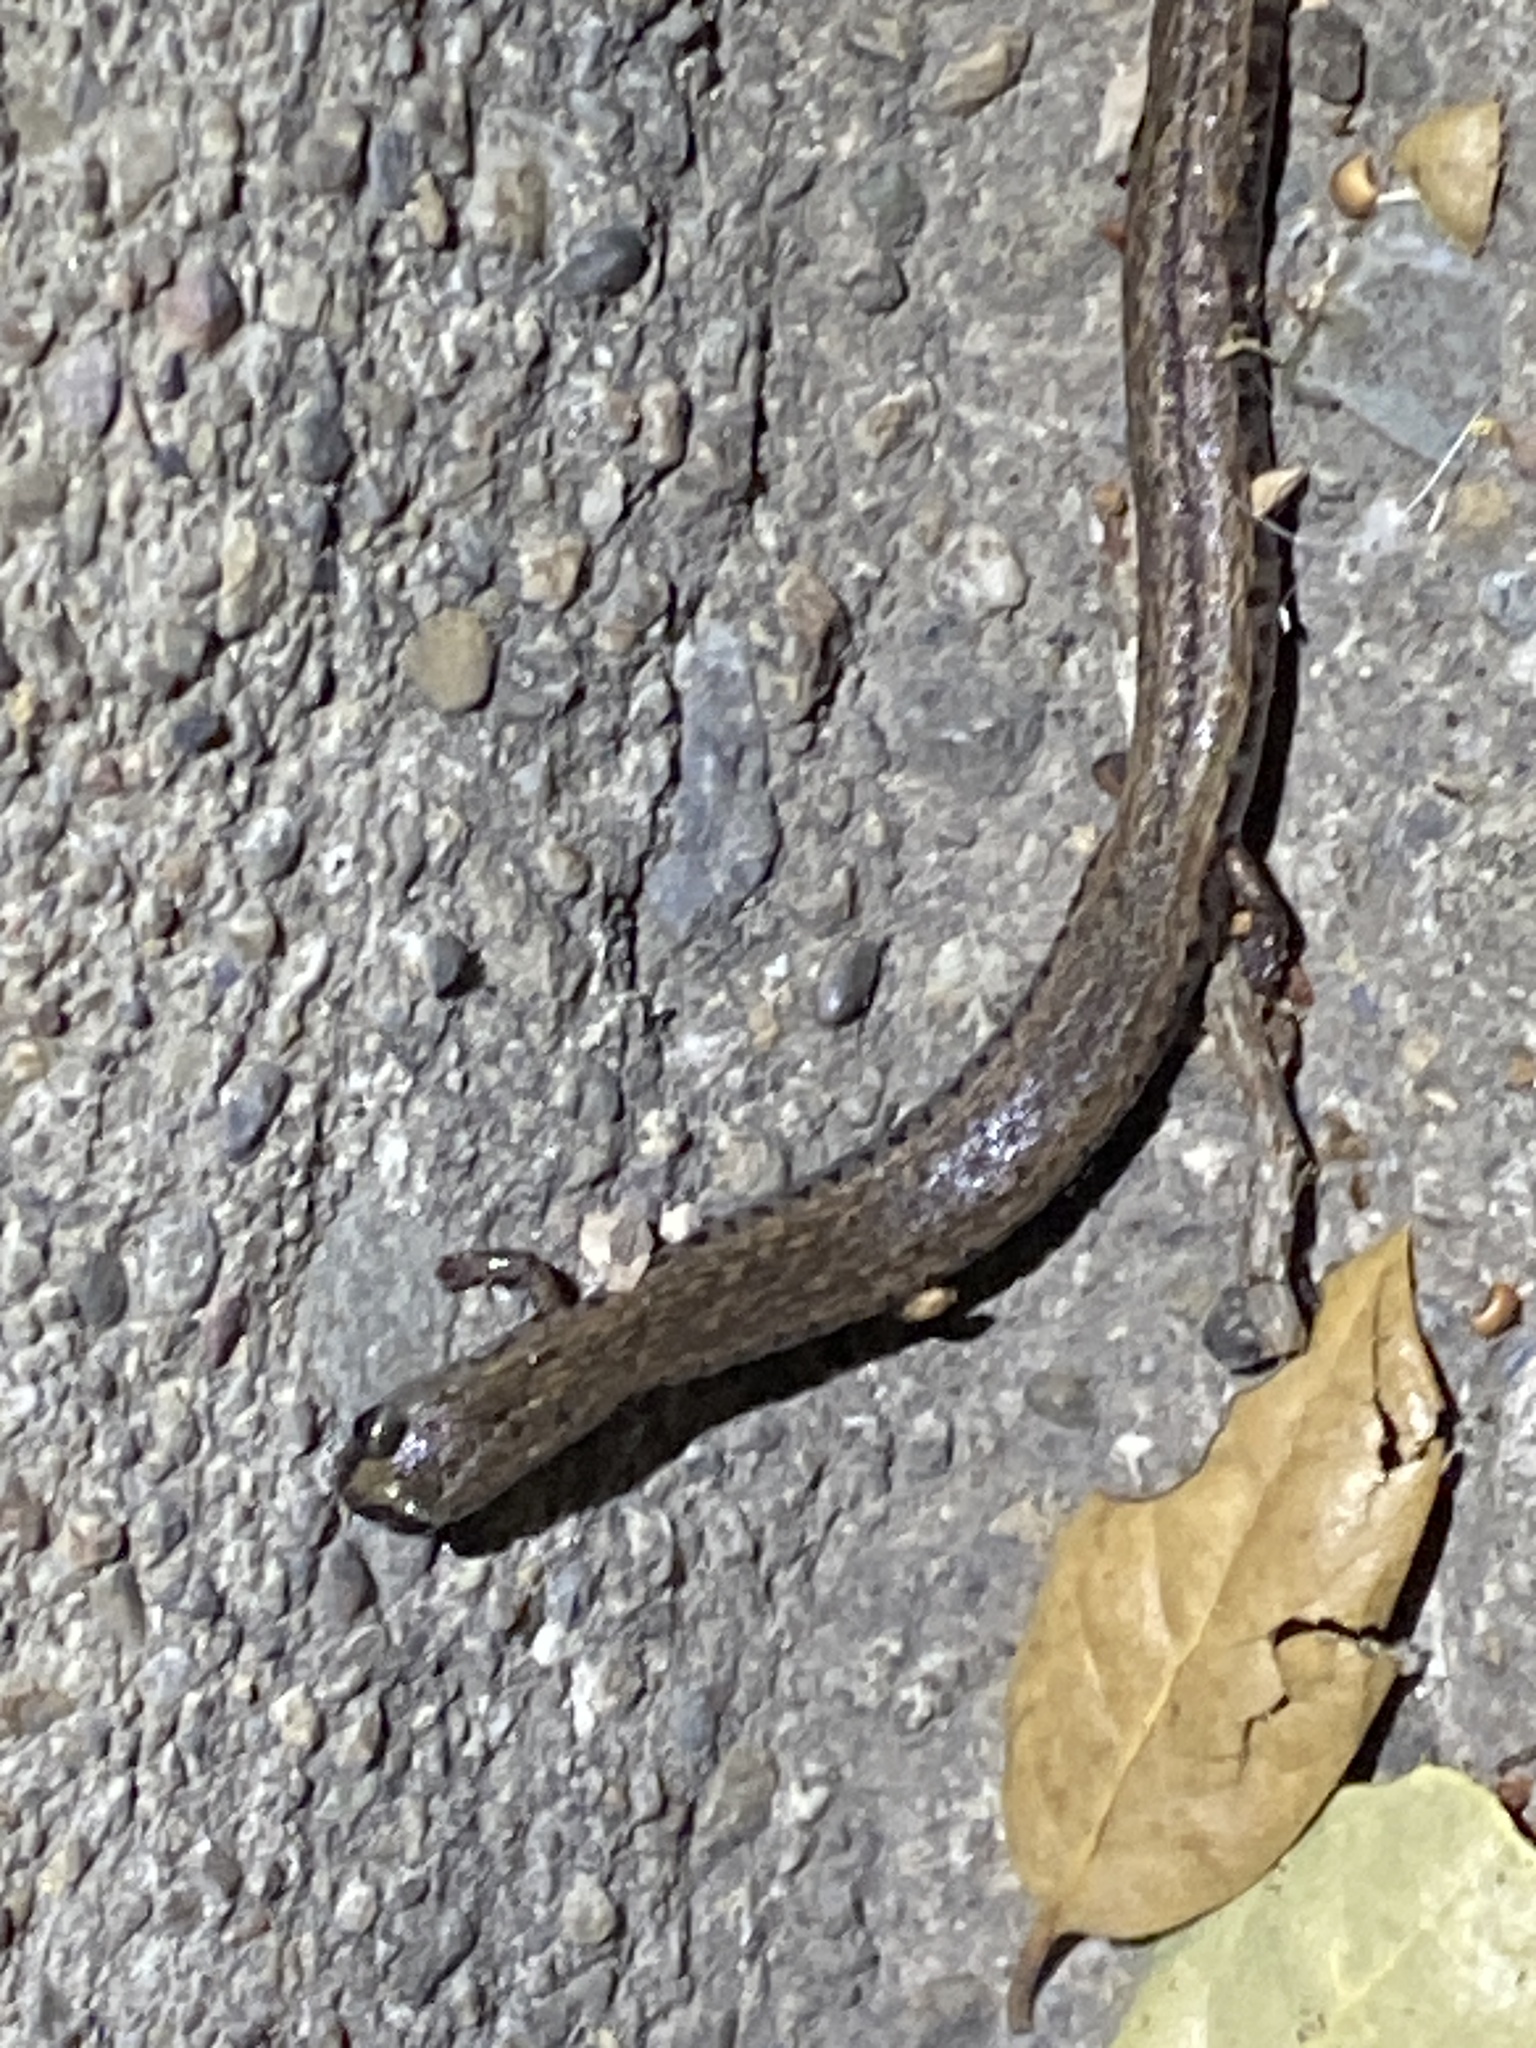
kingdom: Animalia
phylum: Chordata
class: Amphibia
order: Caudata
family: Plethodontidae
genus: Batrachoseps
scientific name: Batrachoseps attenuatus
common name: California slender salamander
